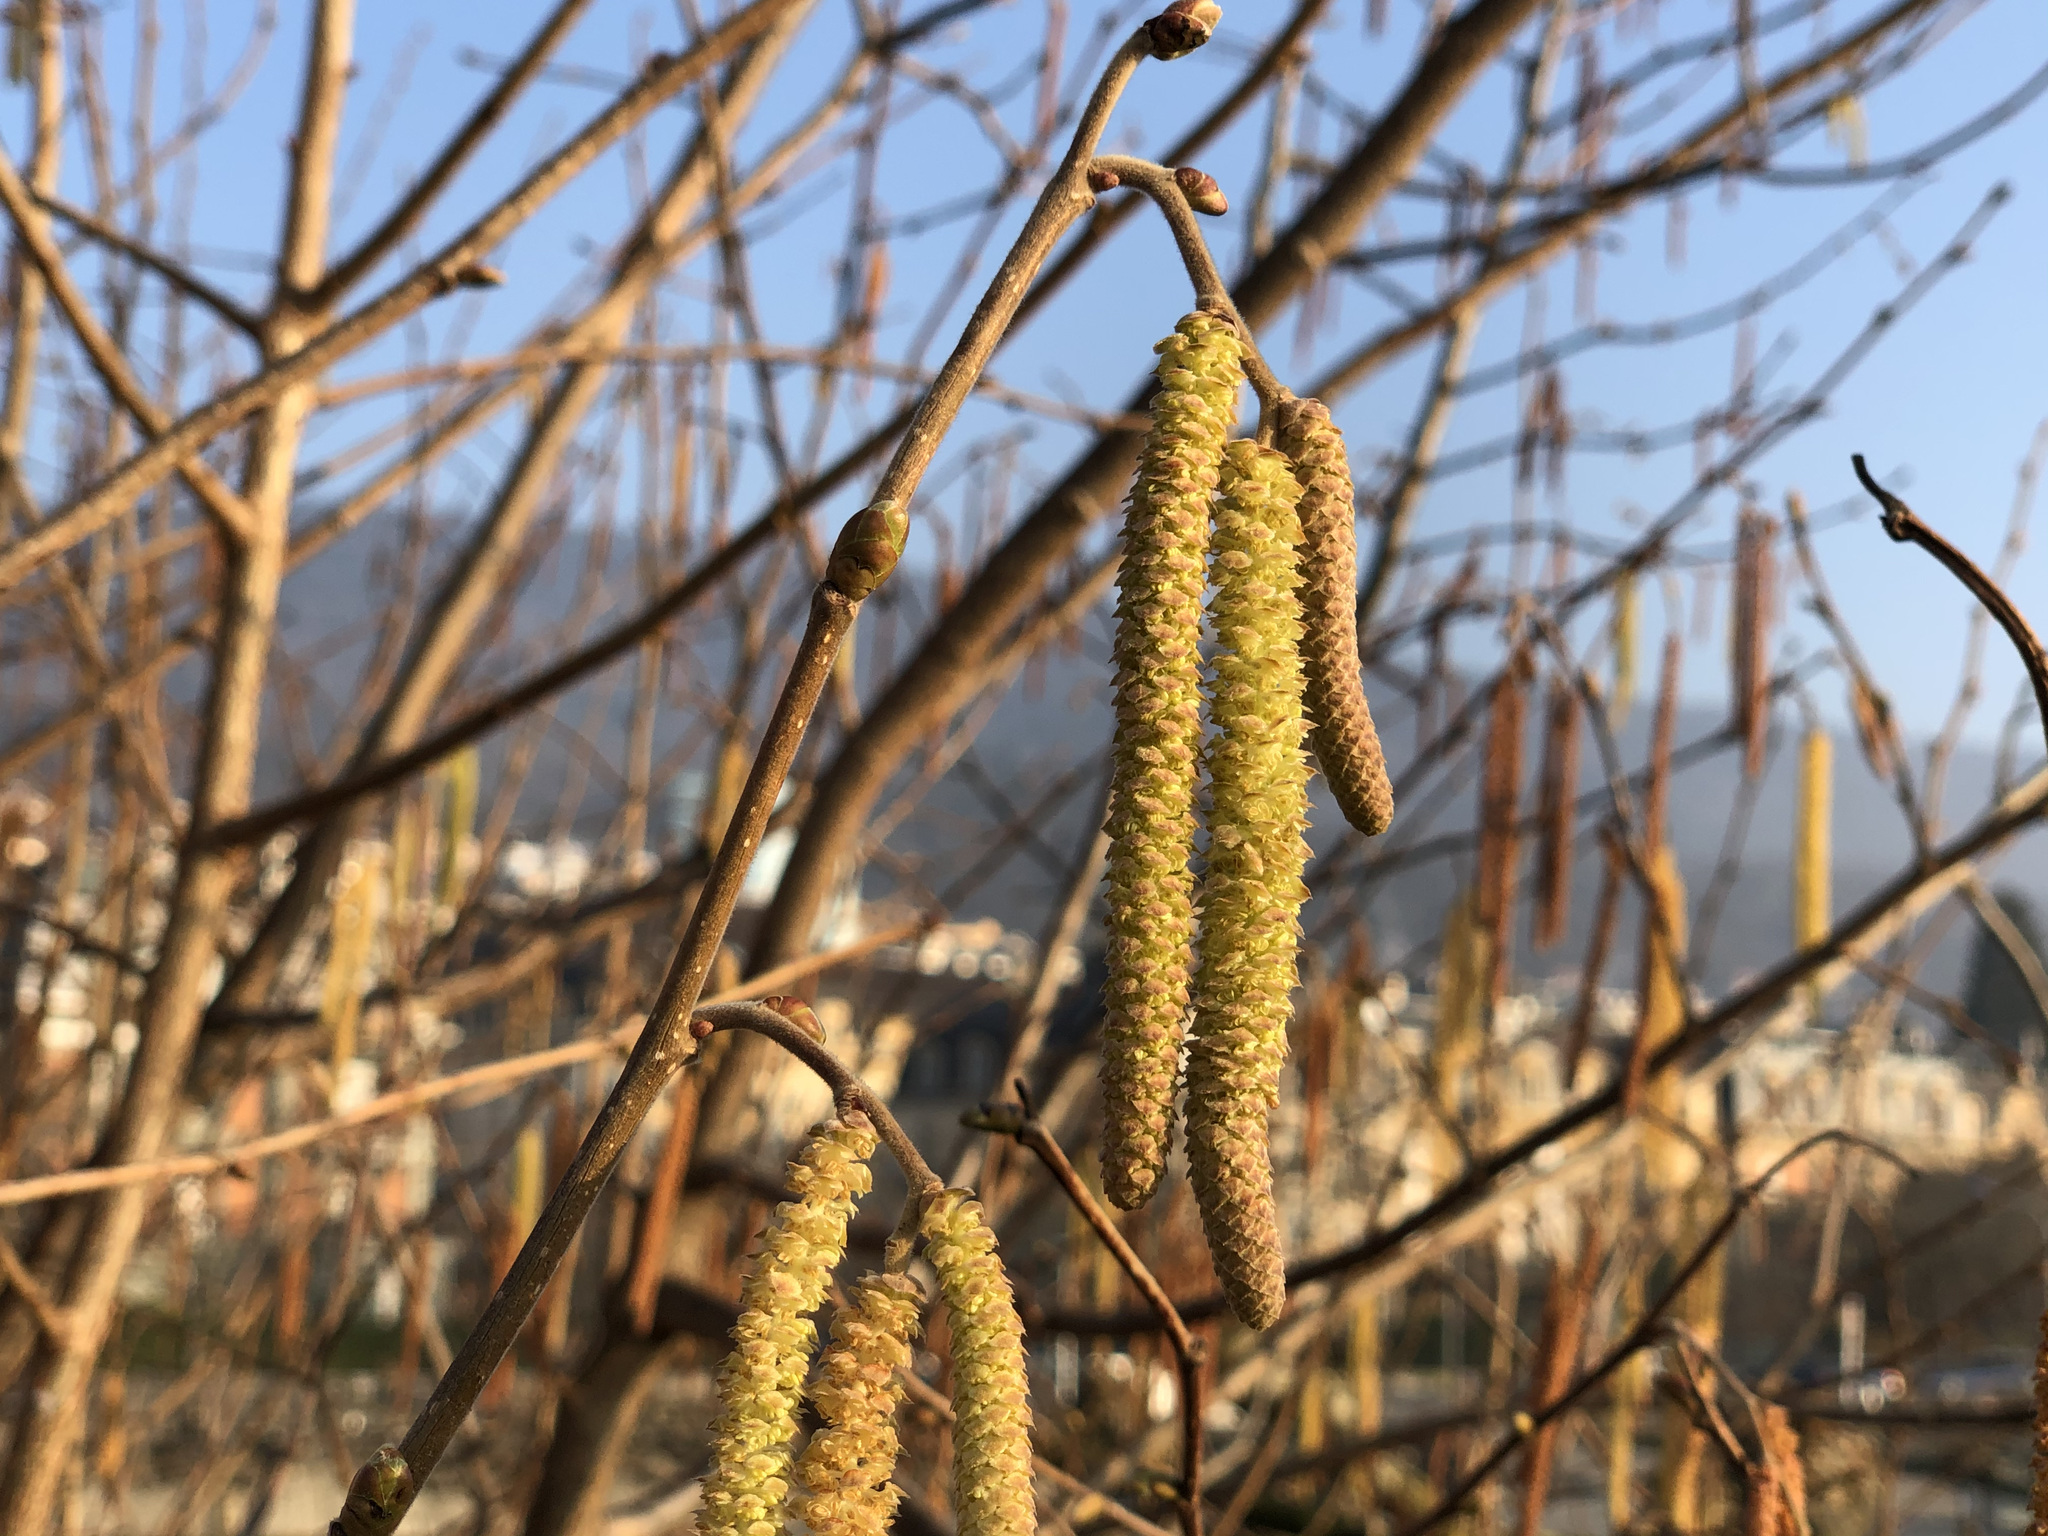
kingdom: Plantae
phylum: Tracheophyta
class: Magnoliopsida
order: Fagales
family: Betulaceae
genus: Corylus
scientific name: Corylus avellana
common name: European hazel
